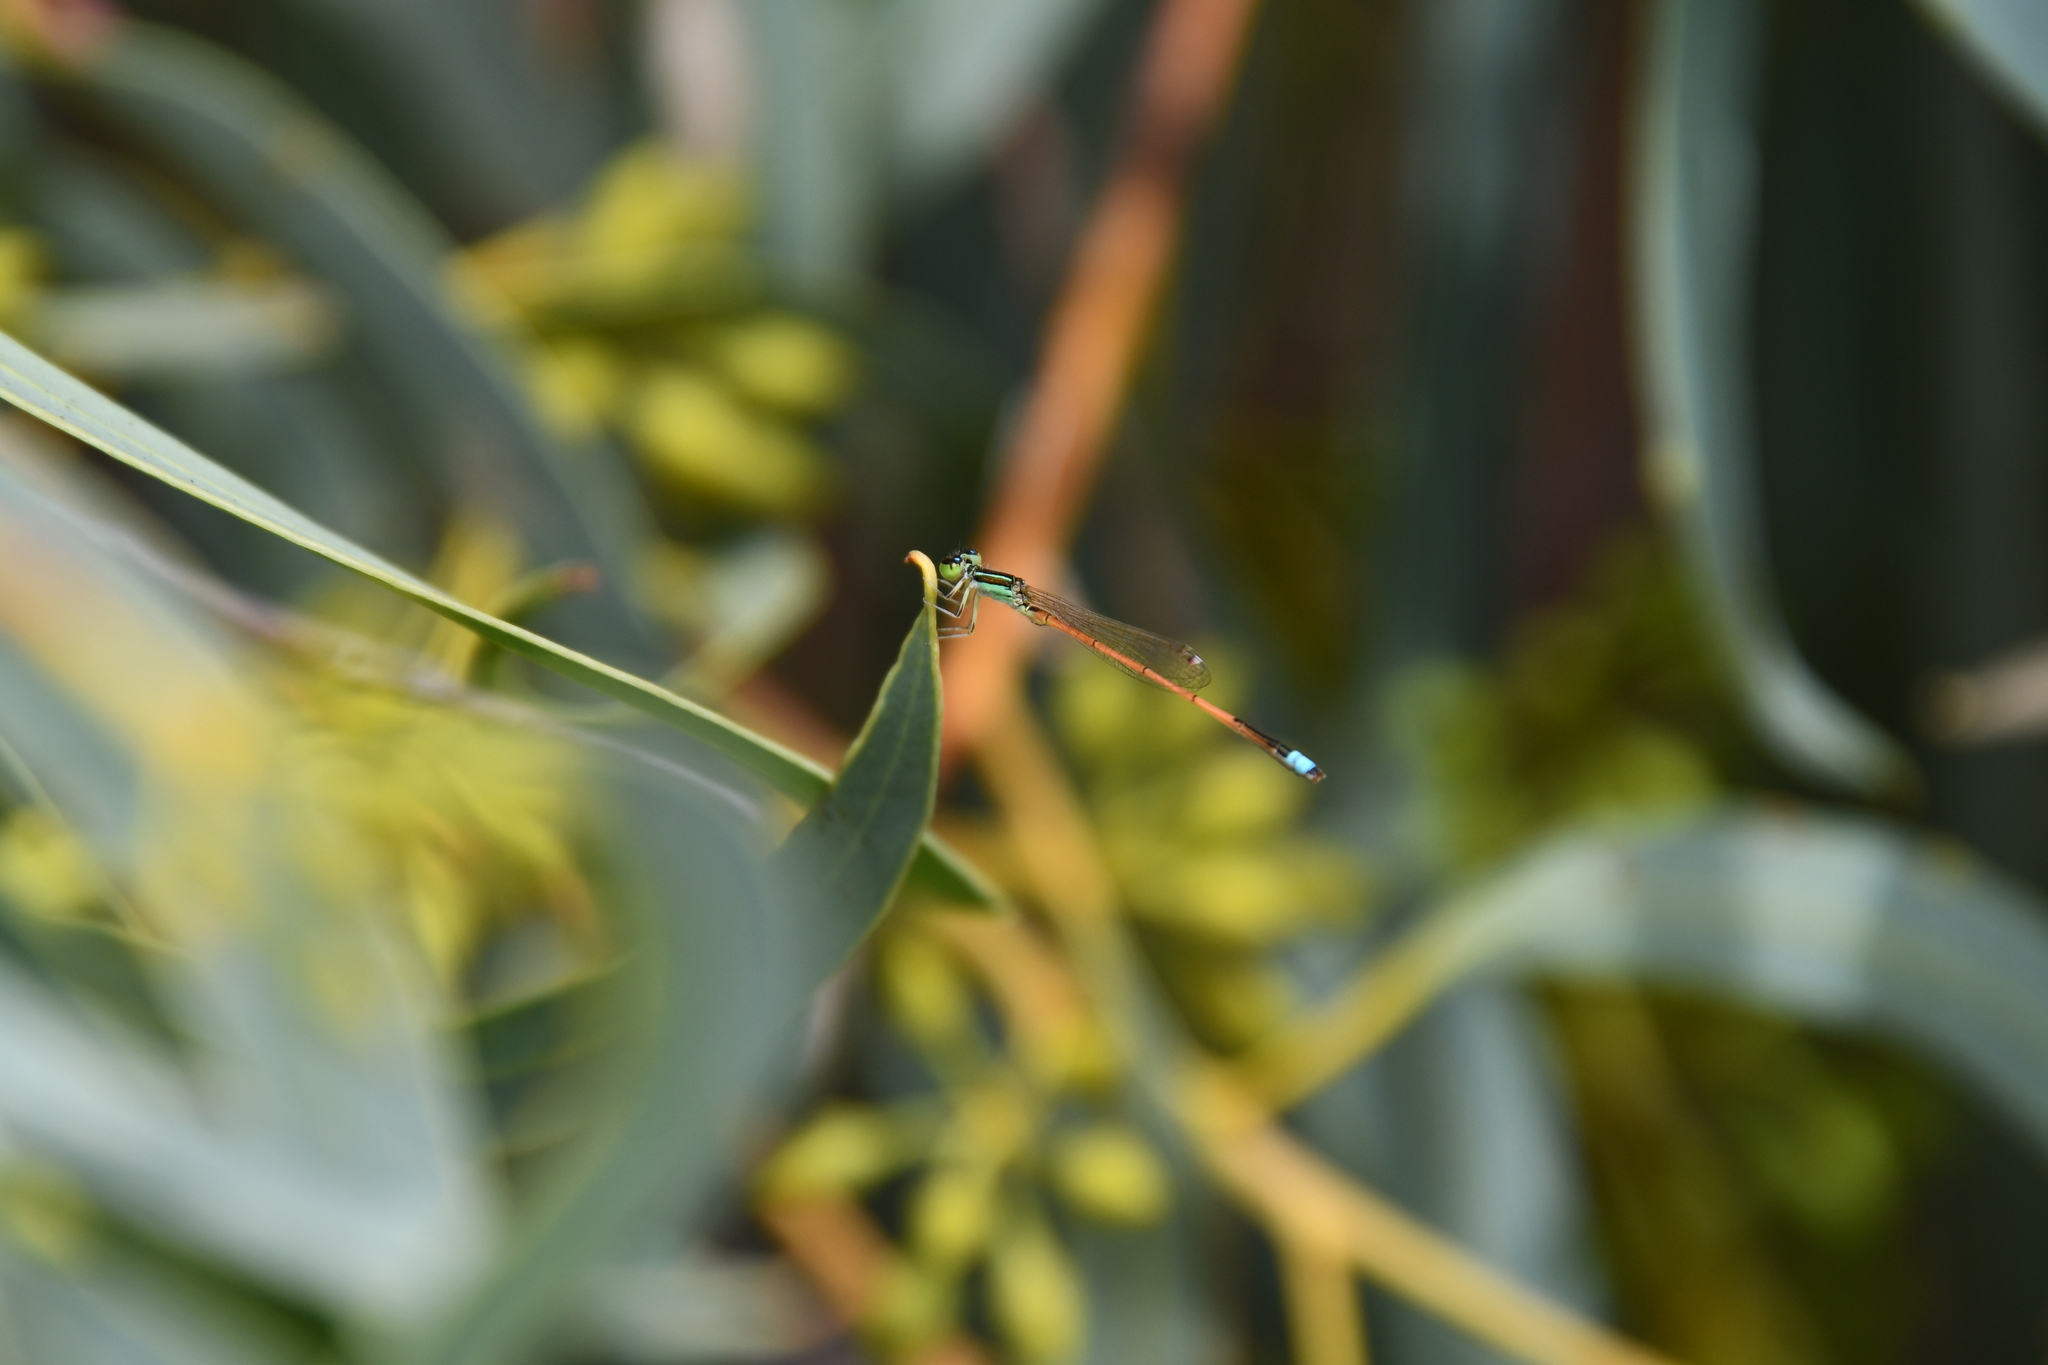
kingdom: Animalia
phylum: Arthropoda
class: Insecta
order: Odonata
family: Coenagrionidae
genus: Ischnura
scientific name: Ischnura aurora
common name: Gossamer damselfly
